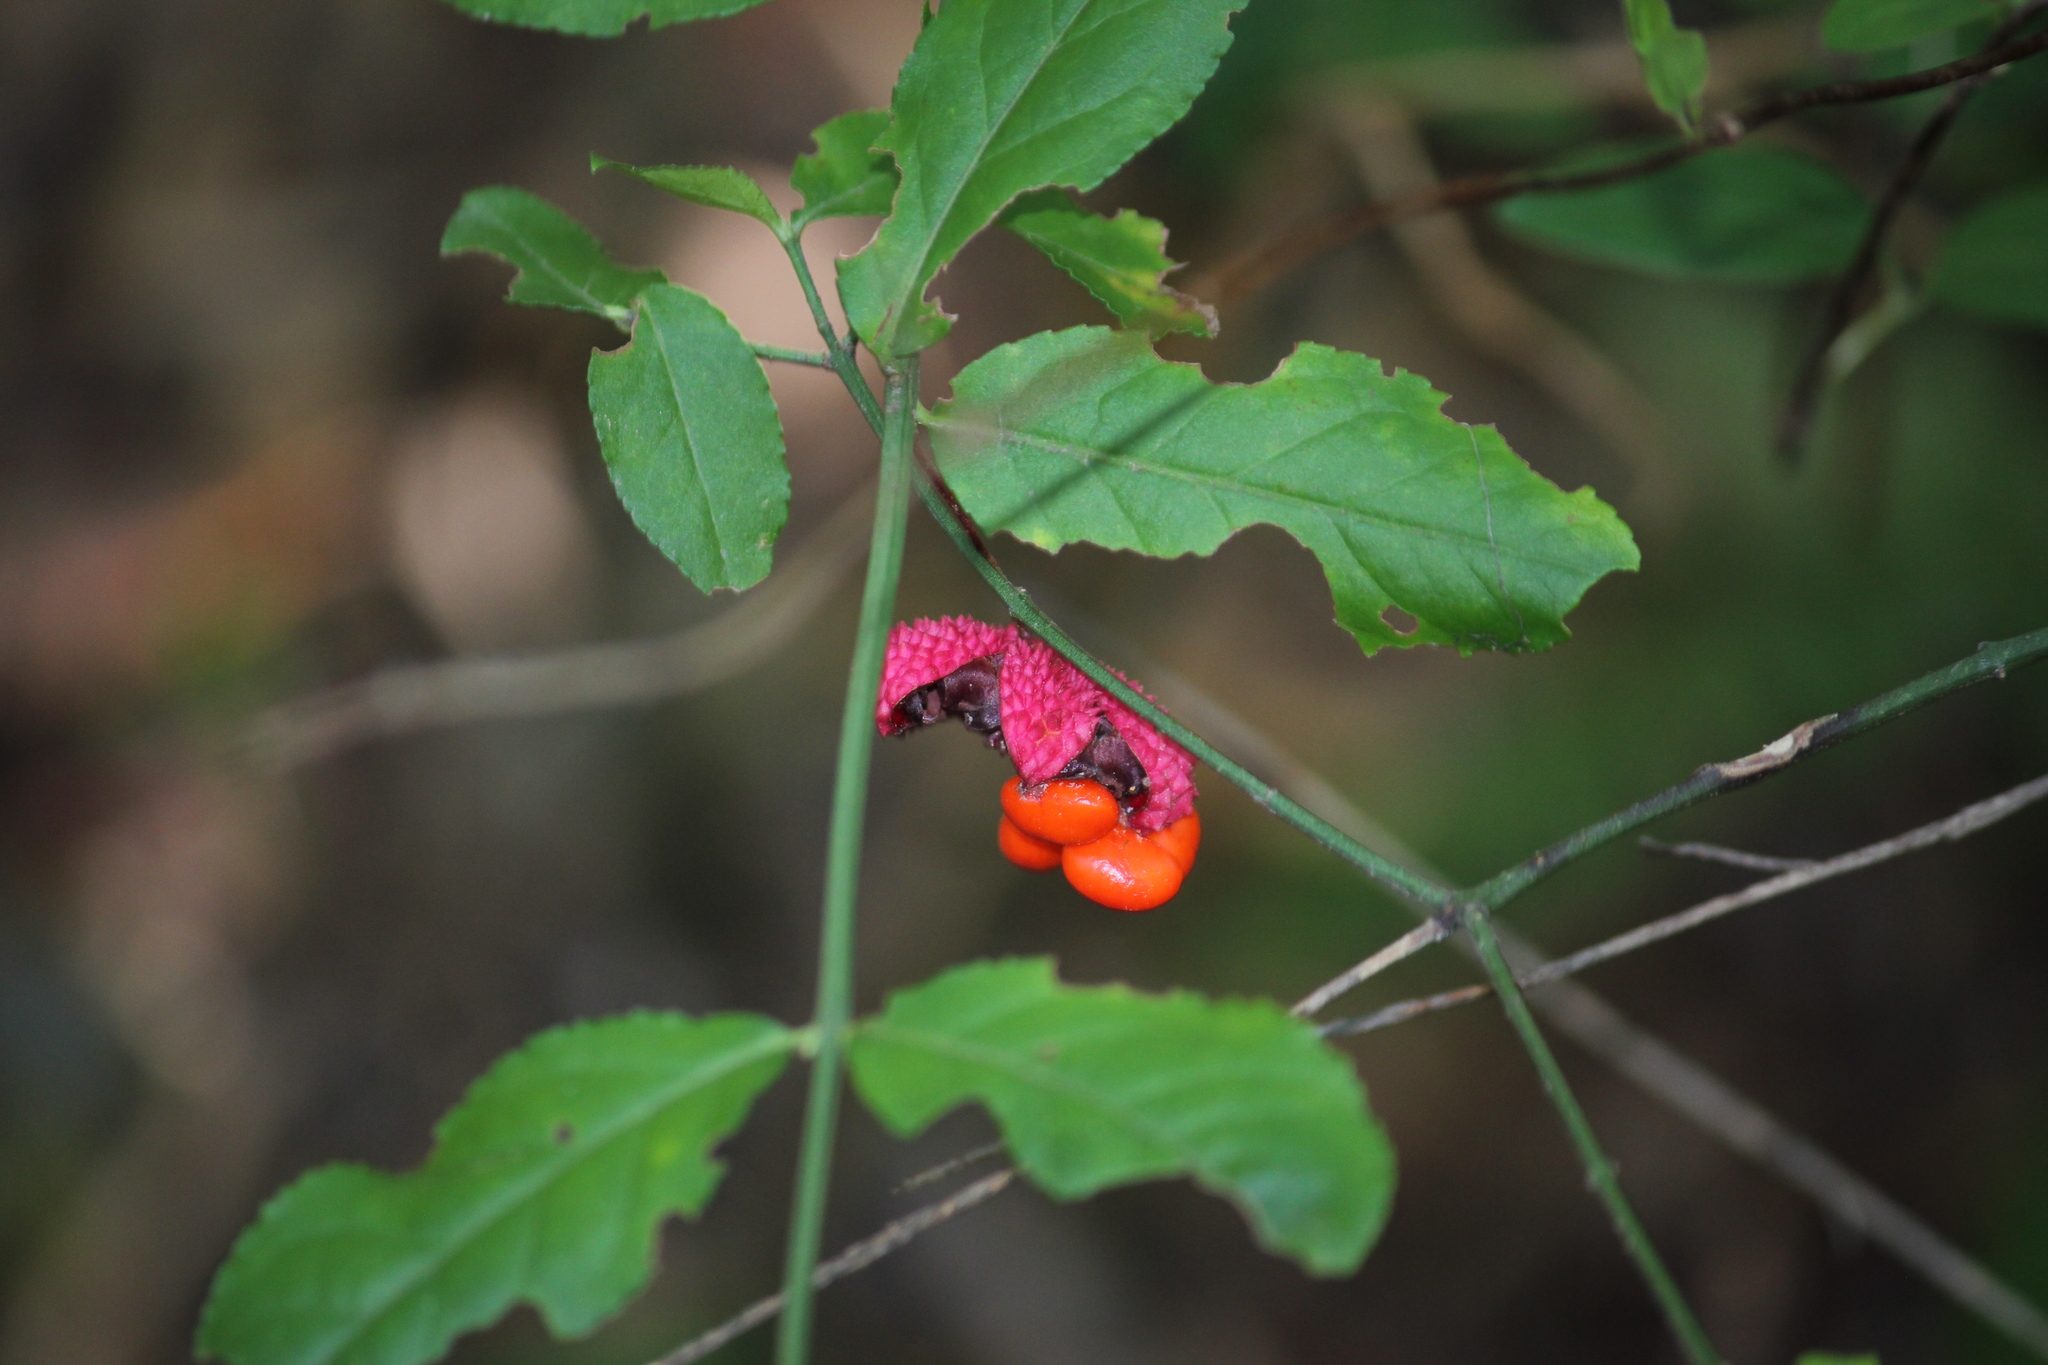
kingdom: Plantae
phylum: Tracheophyta
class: Magnoliopsida
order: Celastrales
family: Celastraceae
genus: Euonymus
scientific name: Euonymus americanus
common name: Bursting-heart
